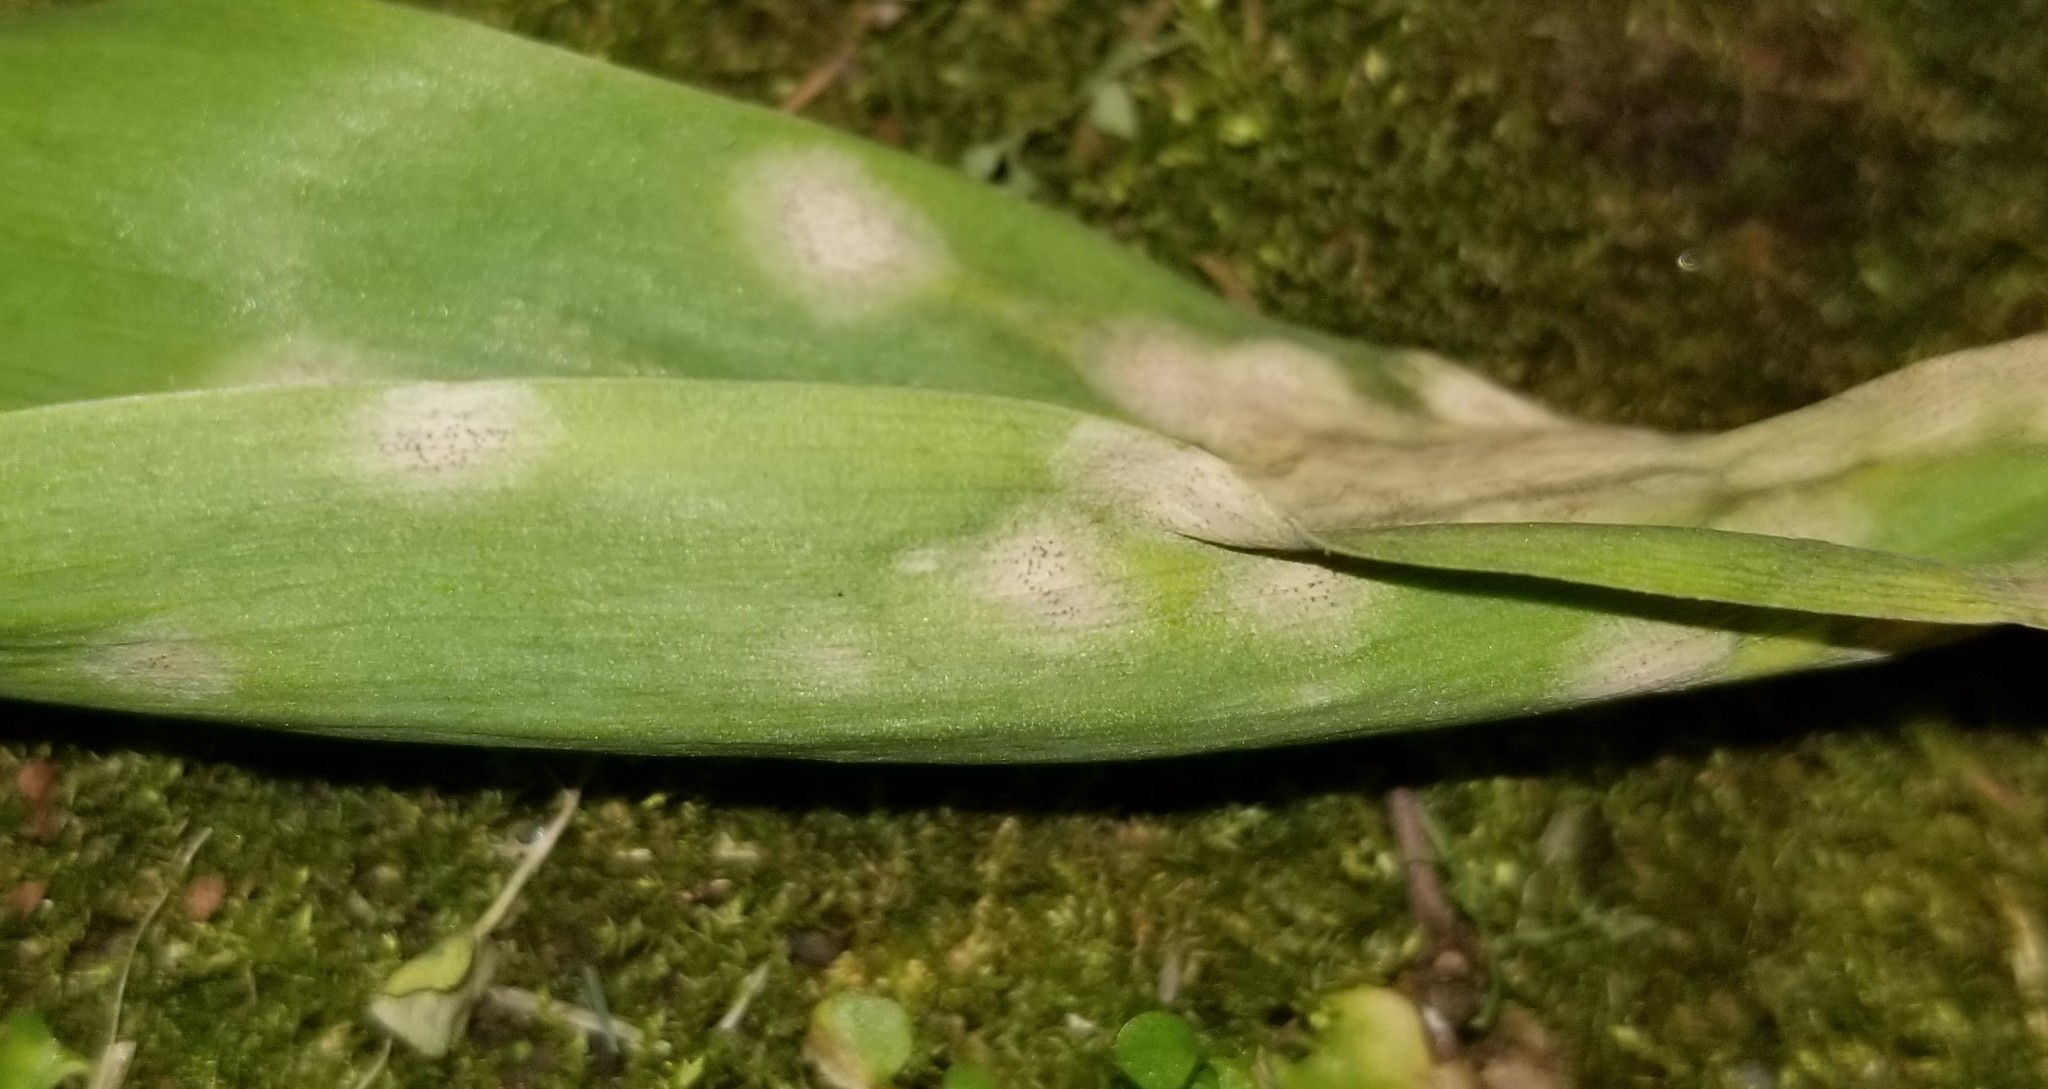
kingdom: Fungi
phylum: Ascomycota
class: Dothideomycetes
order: Mycosphaerellales
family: Mycosphaerellaceae
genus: Septoria
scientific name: Septoria
